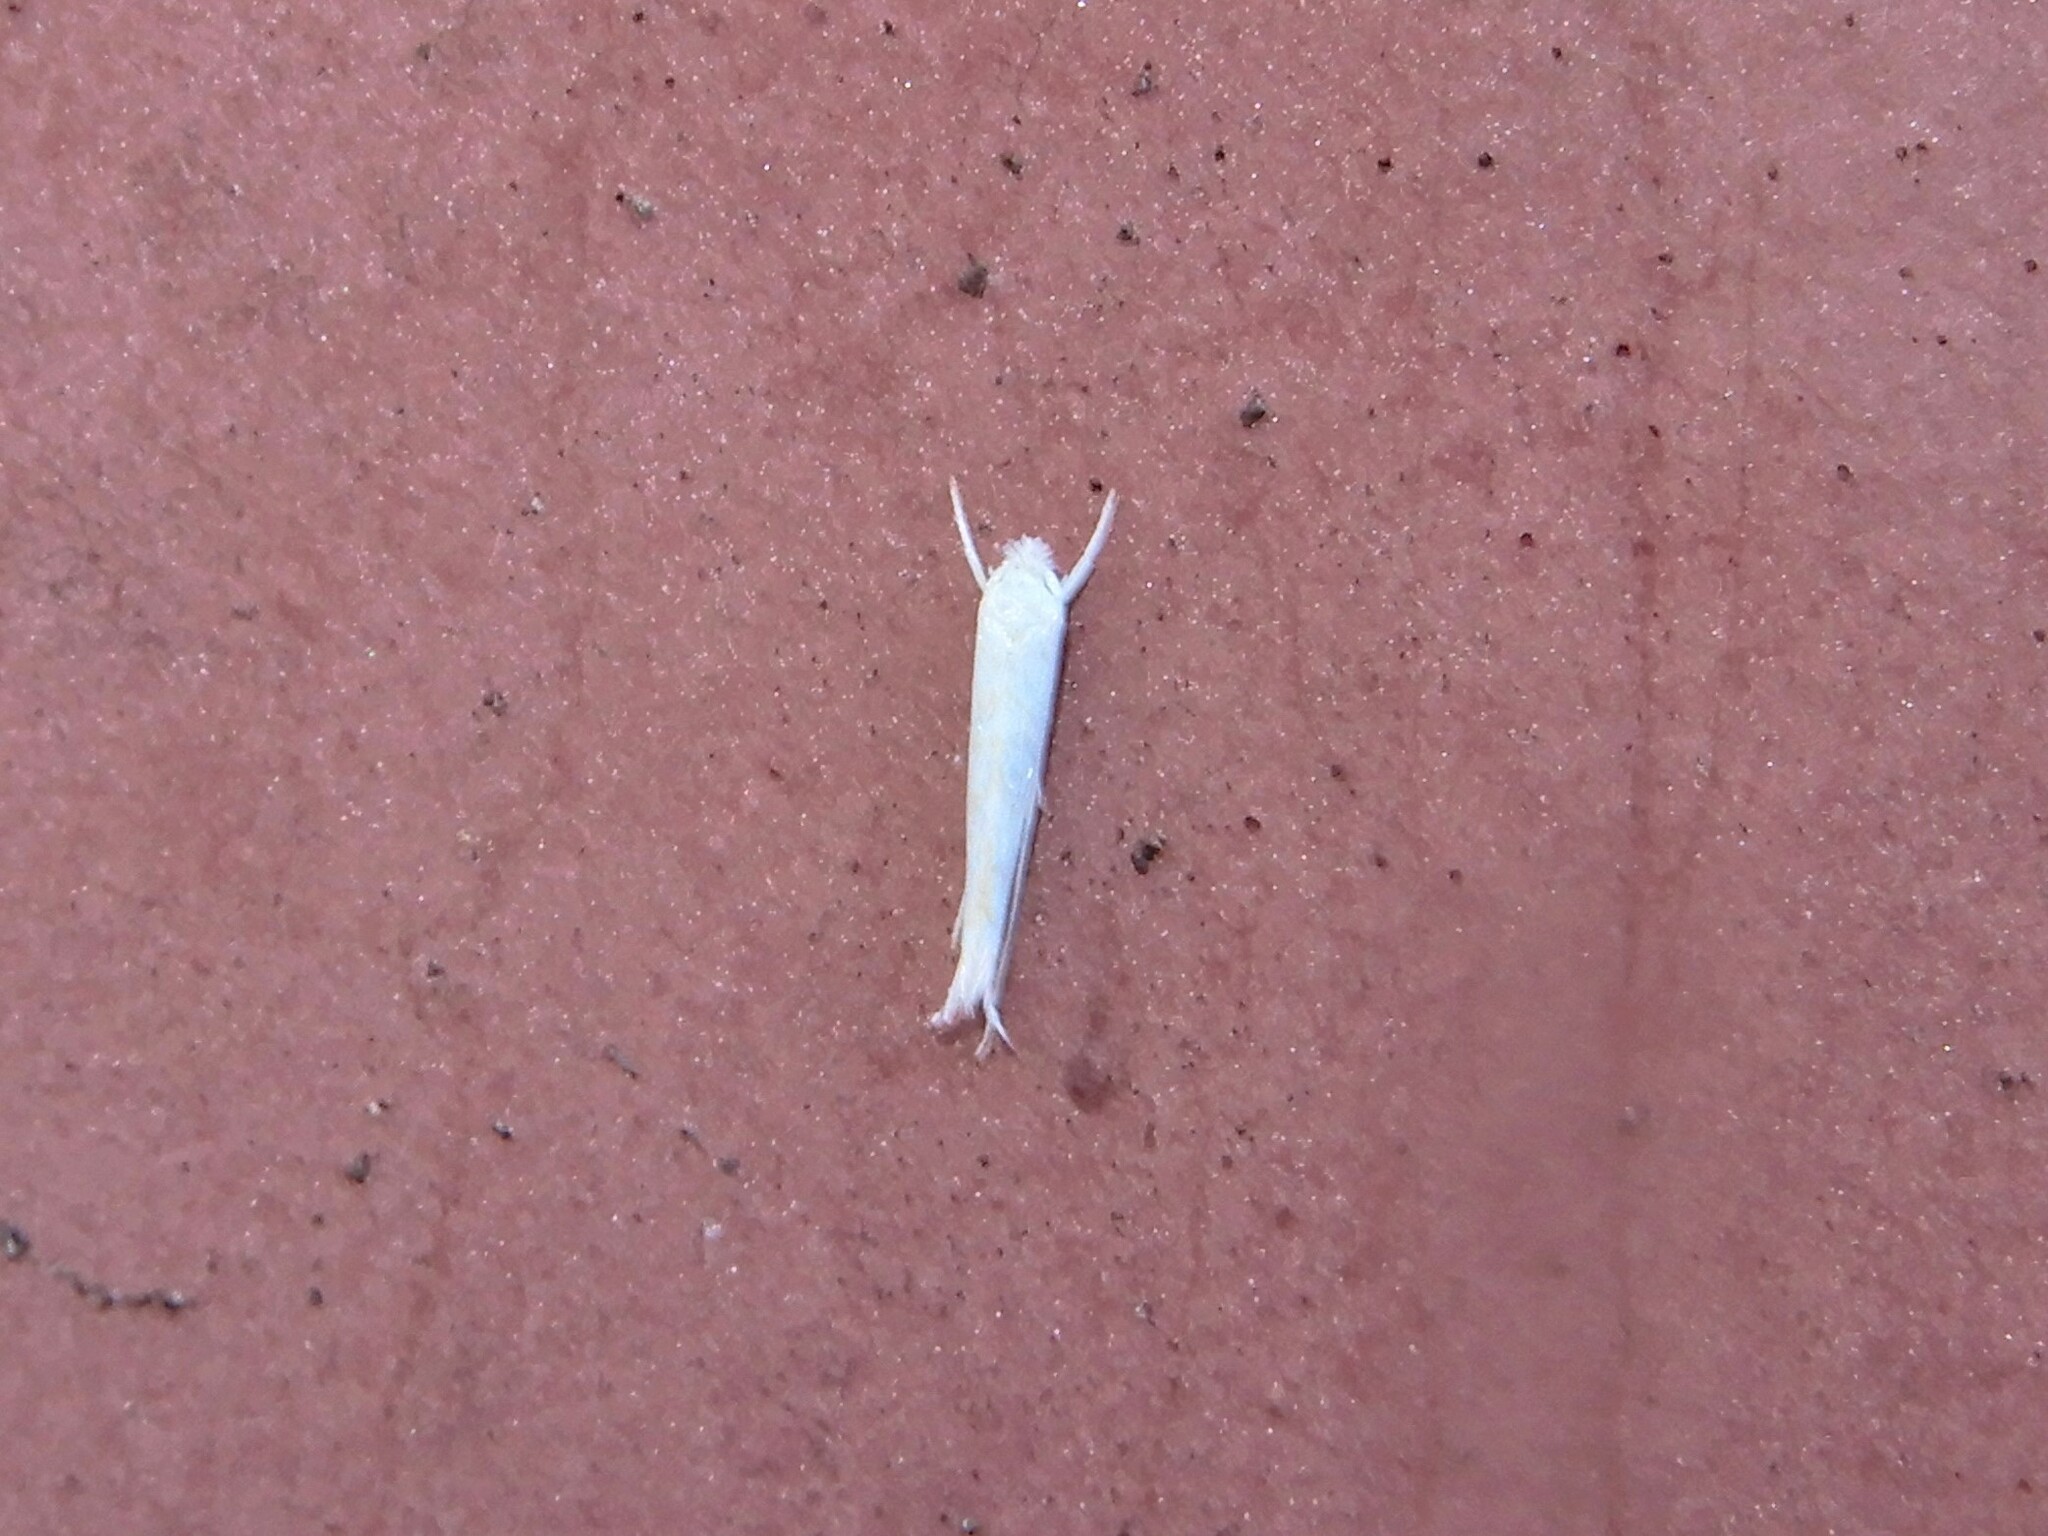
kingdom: Animalia
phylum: Arthropoda
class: Insecta
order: Lepidoptera
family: Lyonetiidae
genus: Stegommata
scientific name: Stegommata sulfuratella
